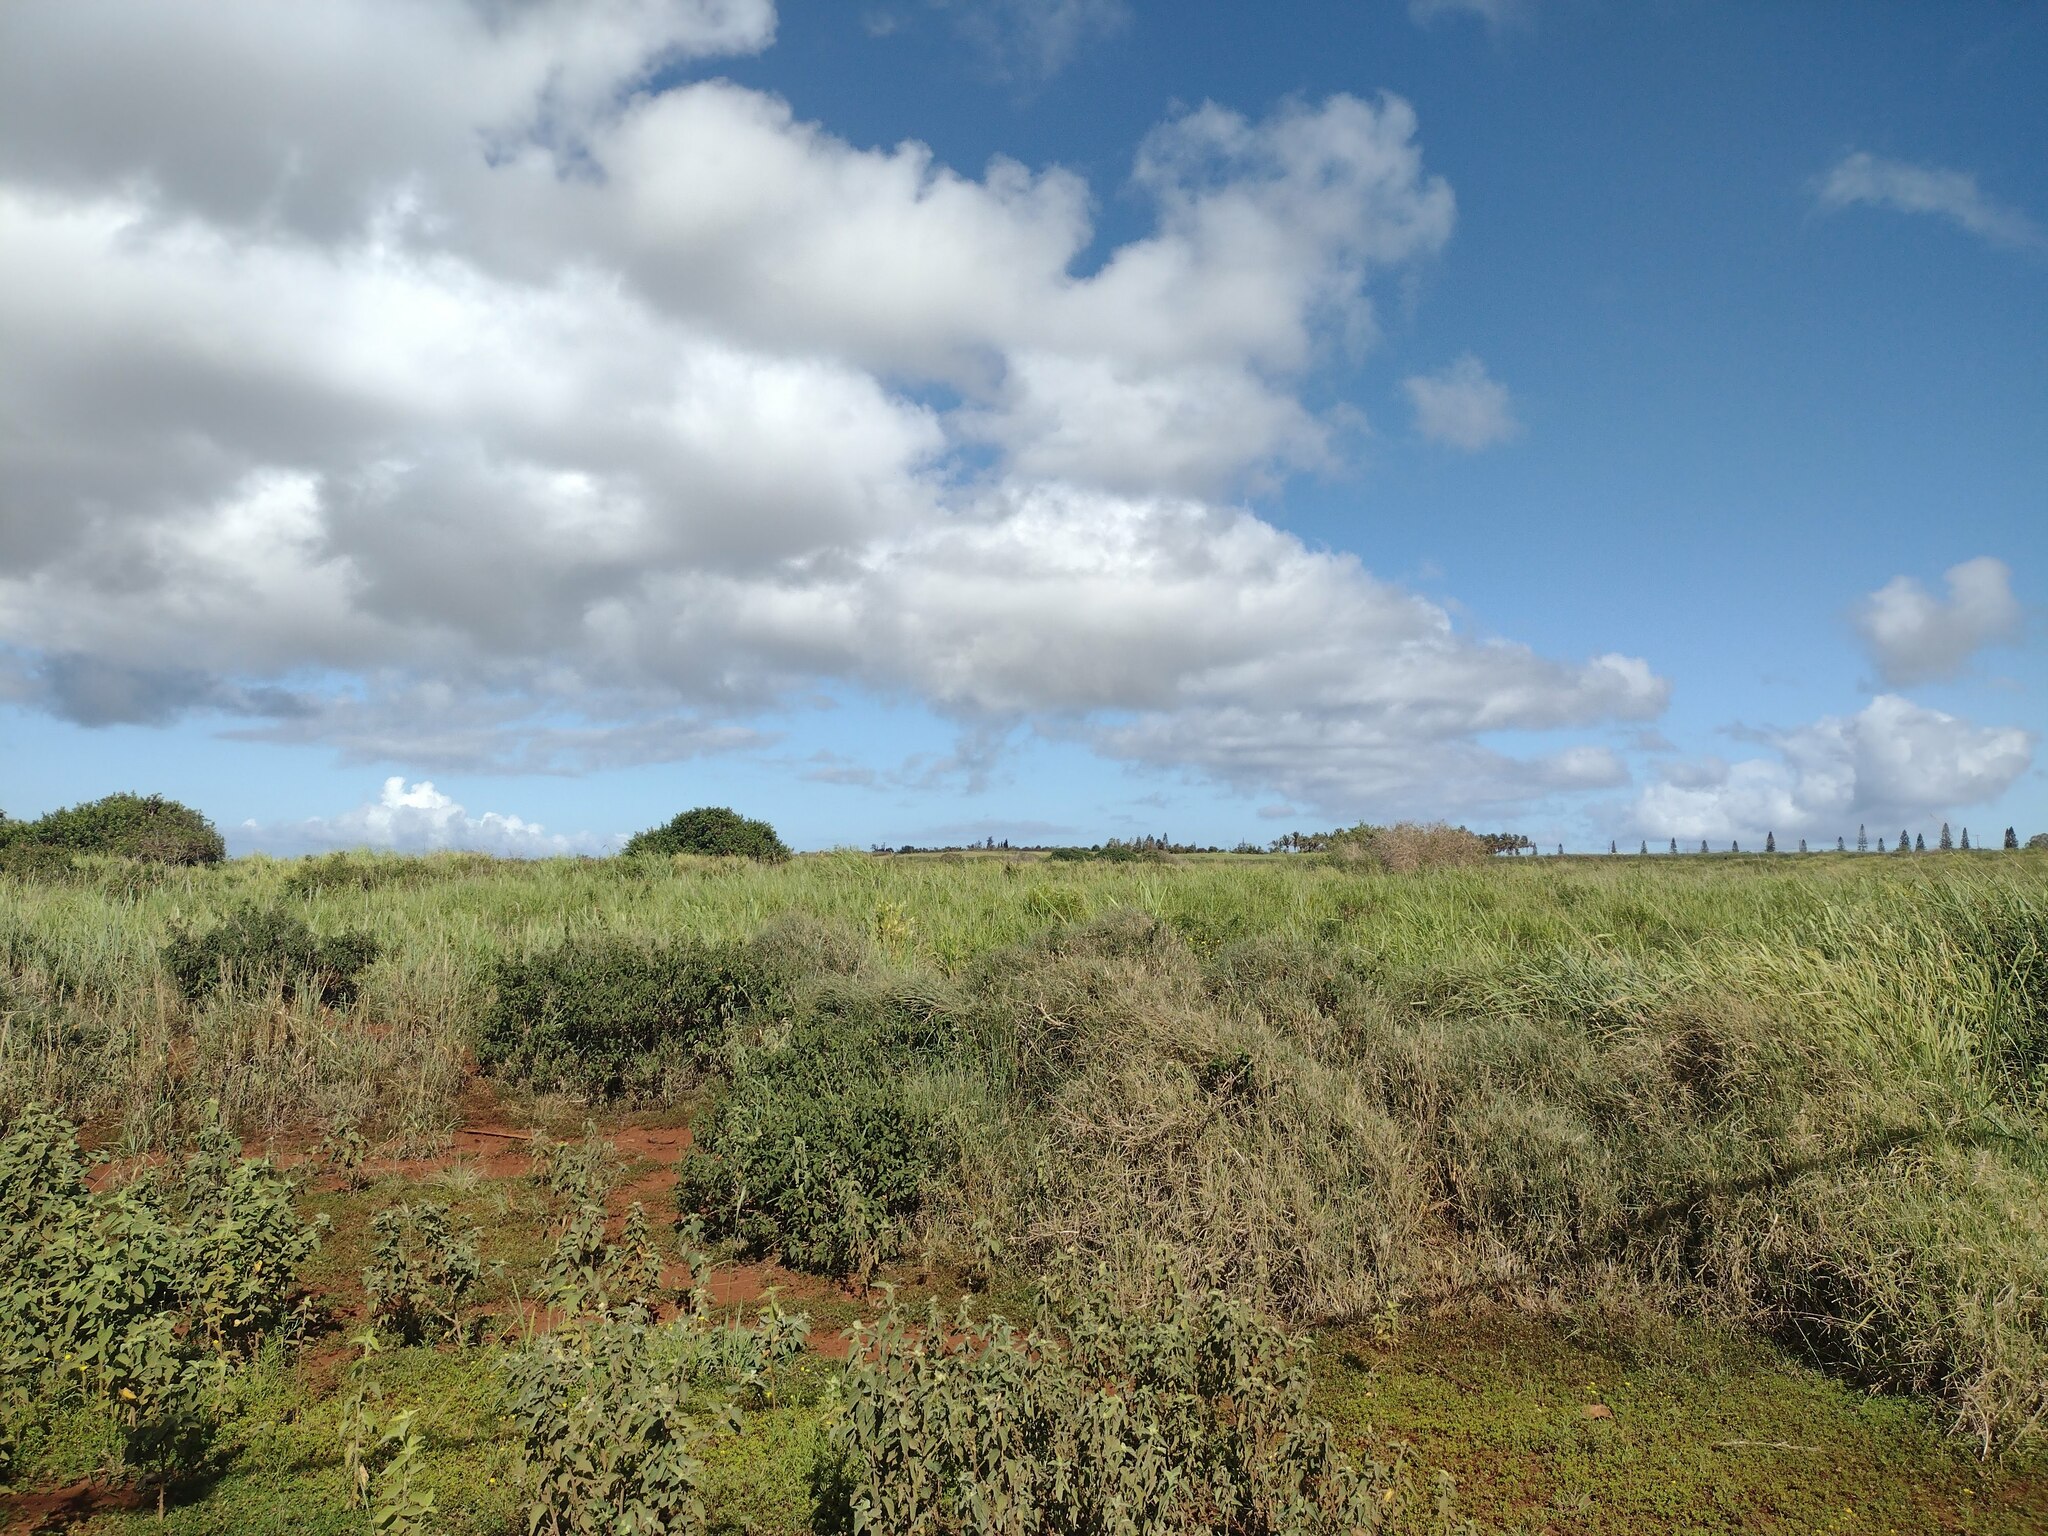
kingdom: Plantae
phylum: Tracheophyta
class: Liliopsida
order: Poales
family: Poaceae
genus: Megathyrsus
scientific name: Megathyrsus maximus
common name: Guineagrass
